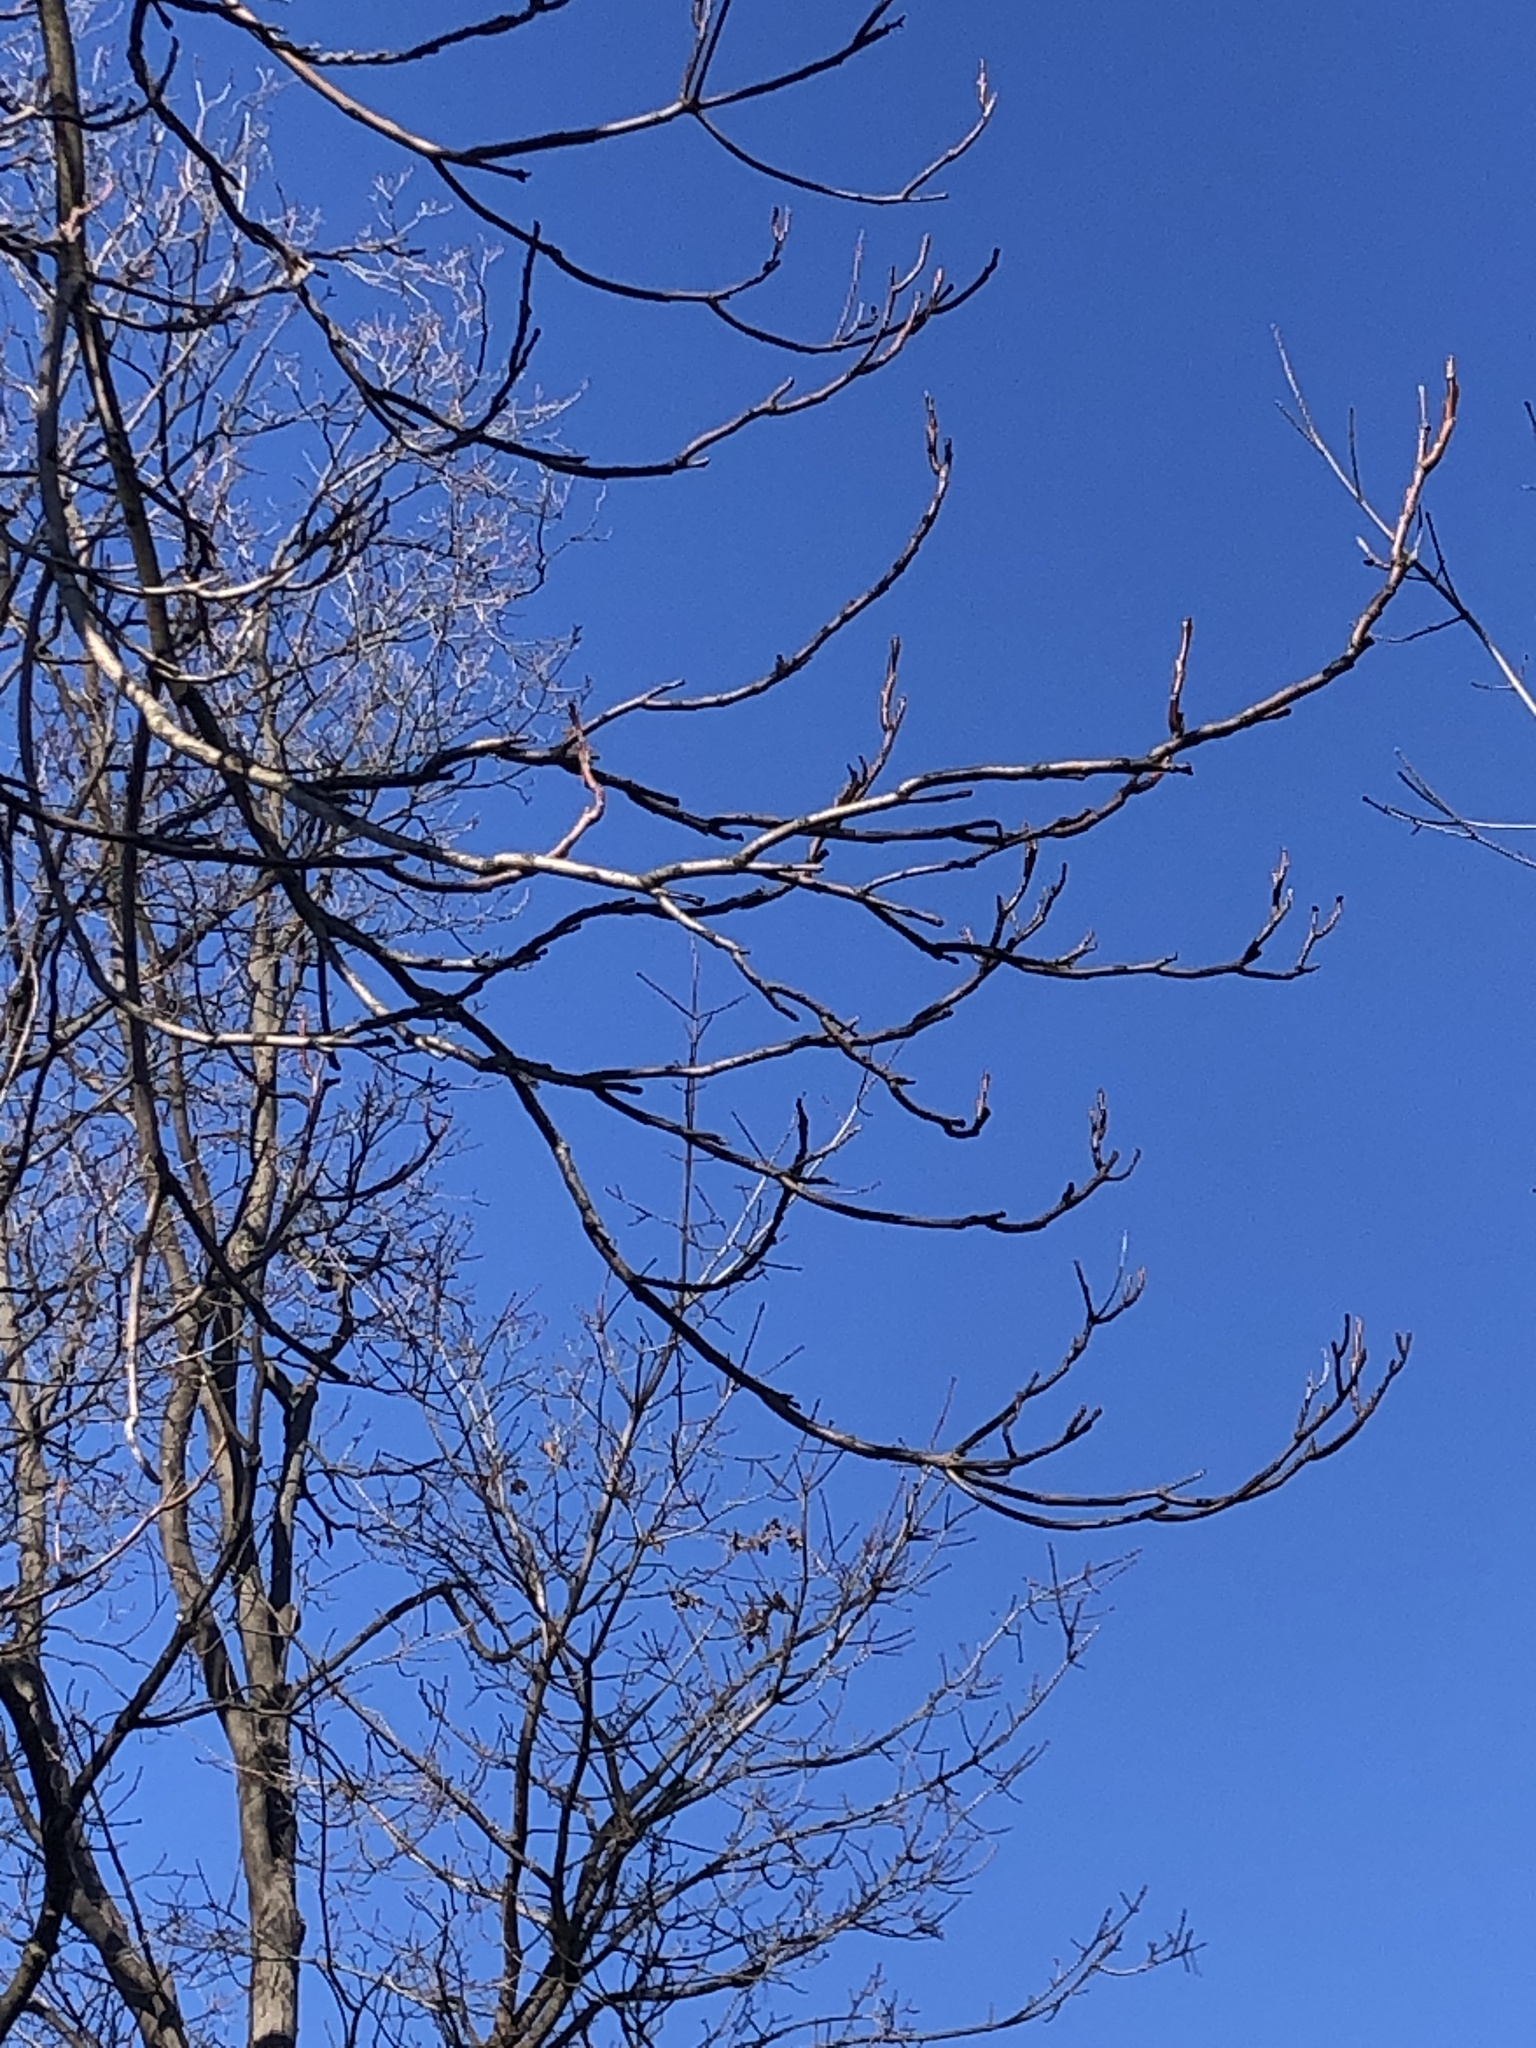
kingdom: Plantae
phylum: Tracheophyta
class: Magnoliopsida
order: Sapindales
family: Simaroubaceae
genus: Ailanthus
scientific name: Ailanthus altissima
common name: Tree-of-heaven
